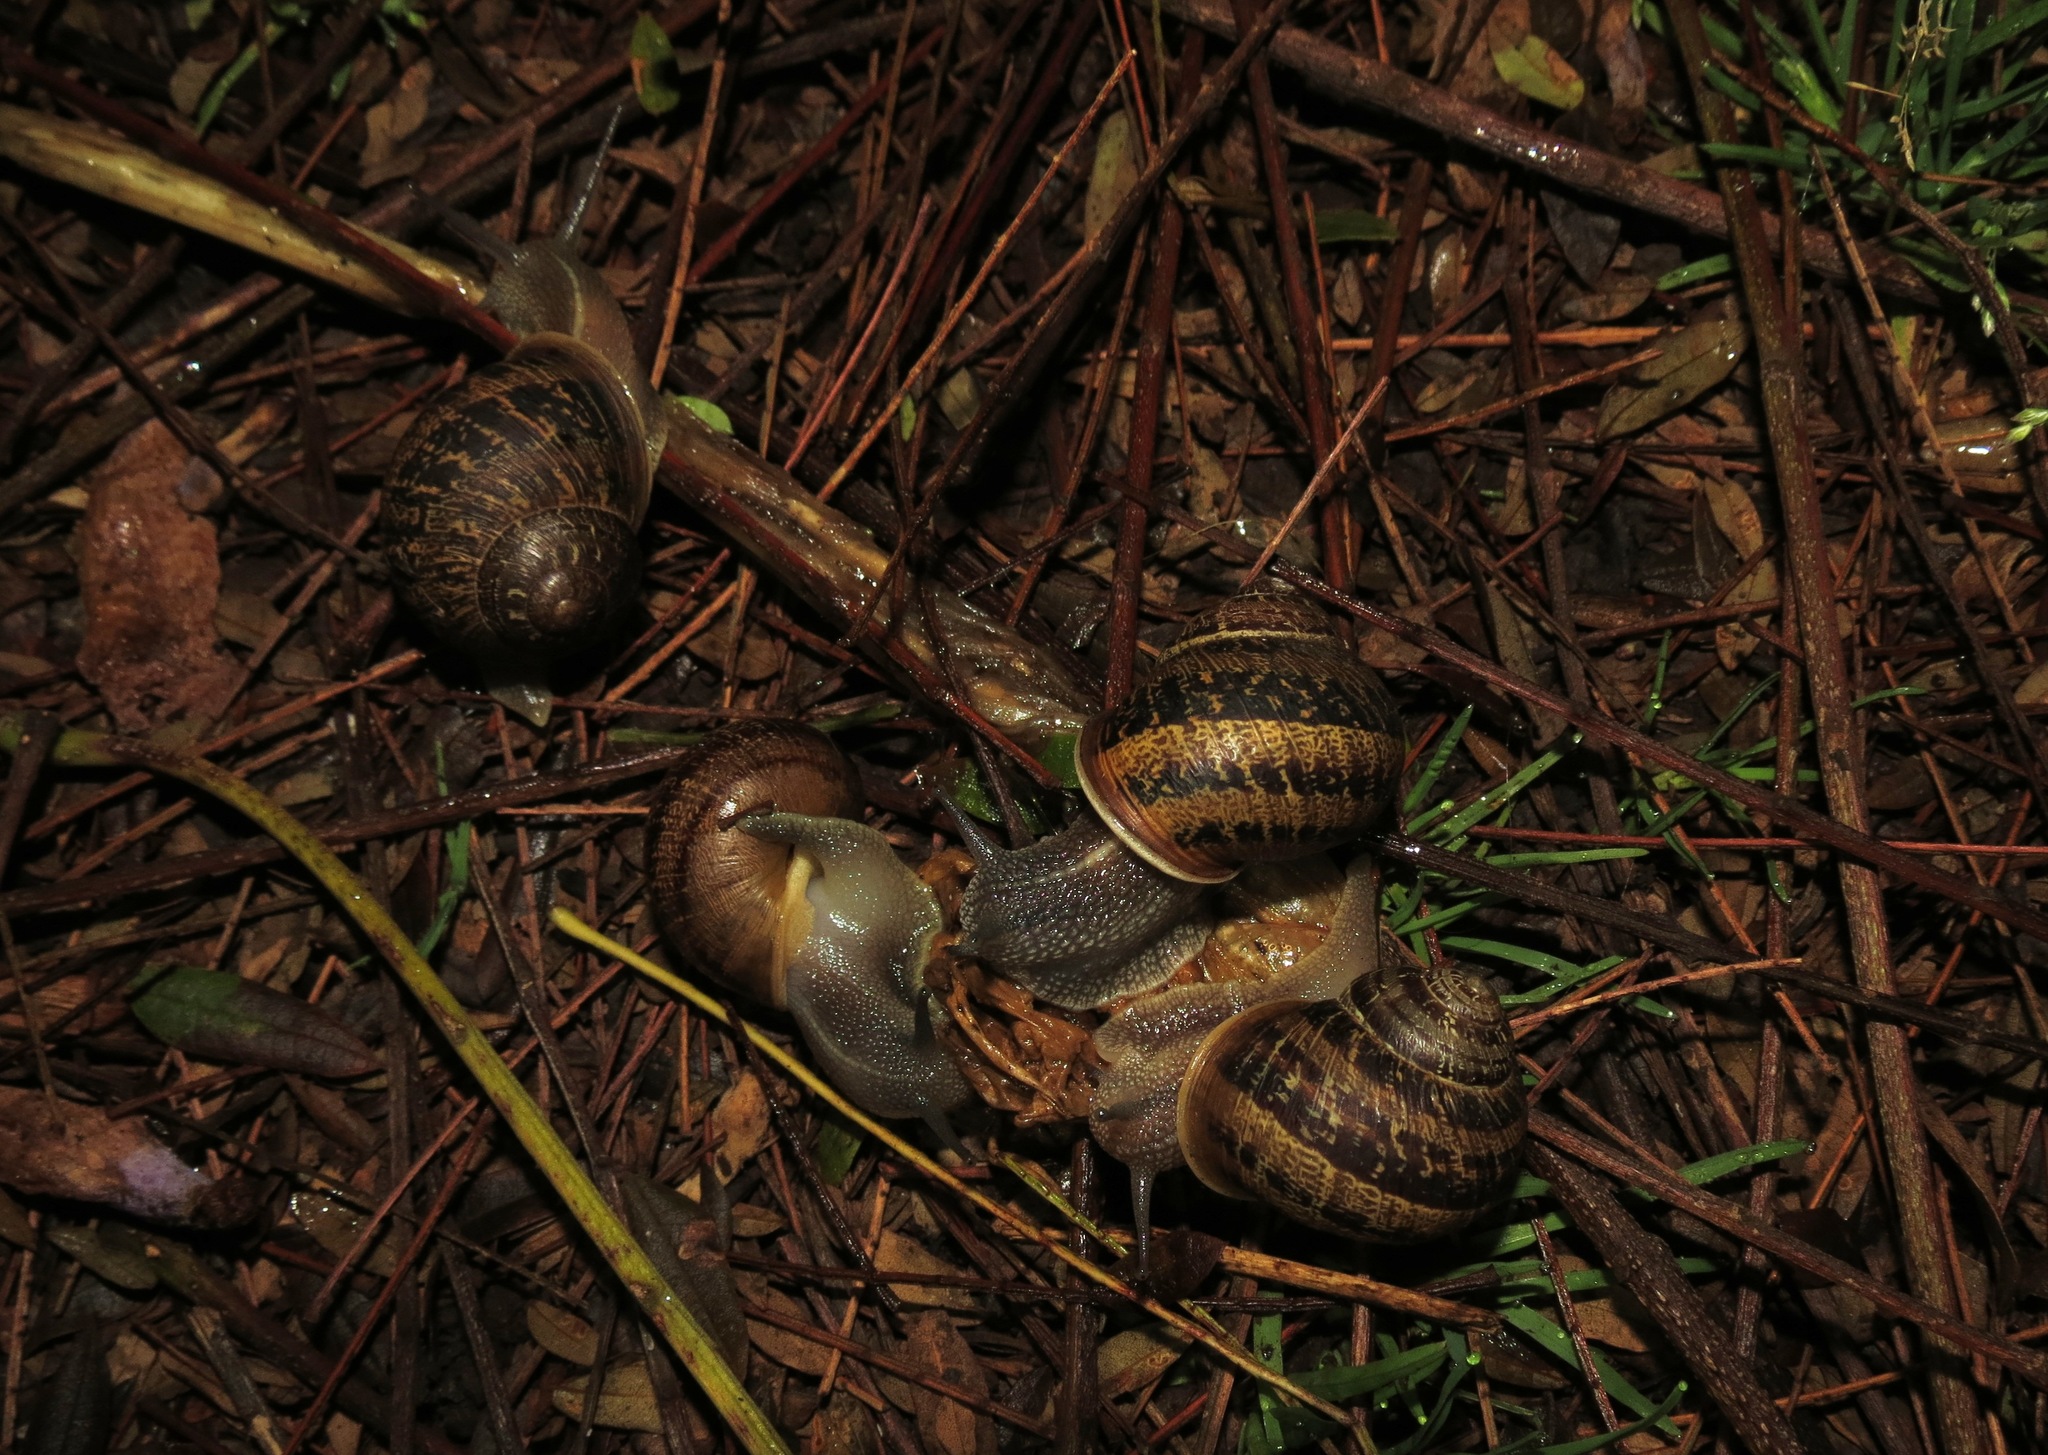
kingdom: Animalia
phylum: Mollusca
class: Gastropoda
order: Stylommatophora
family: Helicidae
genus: Cornu
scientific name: Cornu aspersum
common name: Brown garden snail
